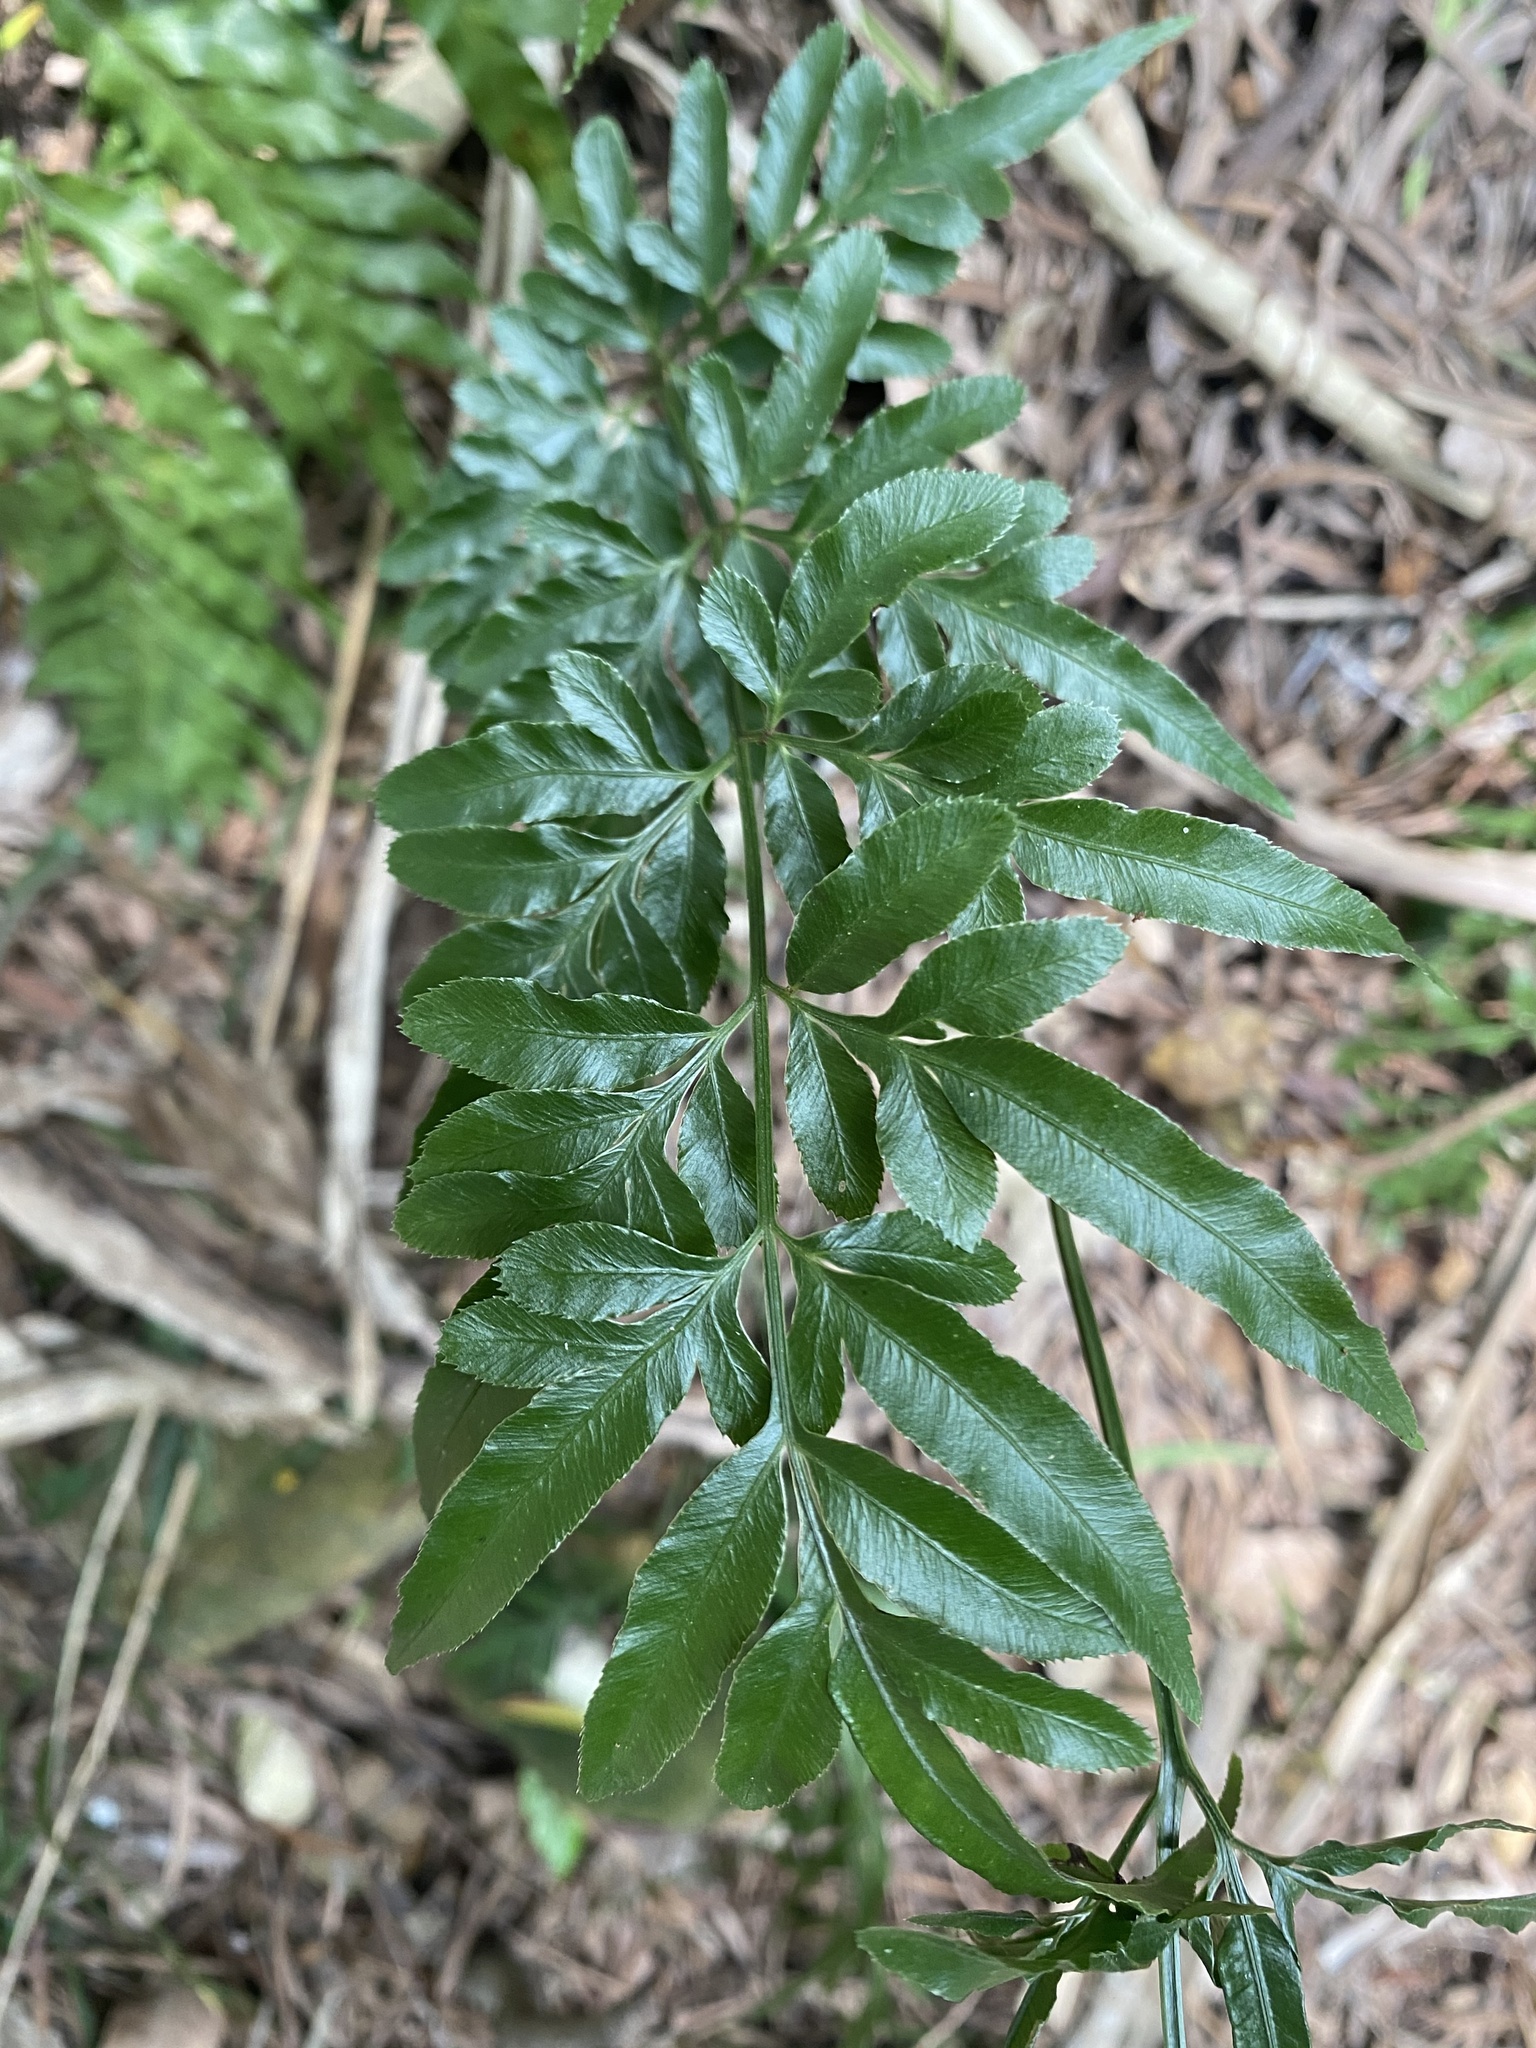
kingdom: Plantae
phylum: Tracheophyta
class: Polypodiopsida
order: Polypodiales
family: Pteridaceae
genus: Pteris
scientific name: Pteris ensiformis
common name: Sword brake
